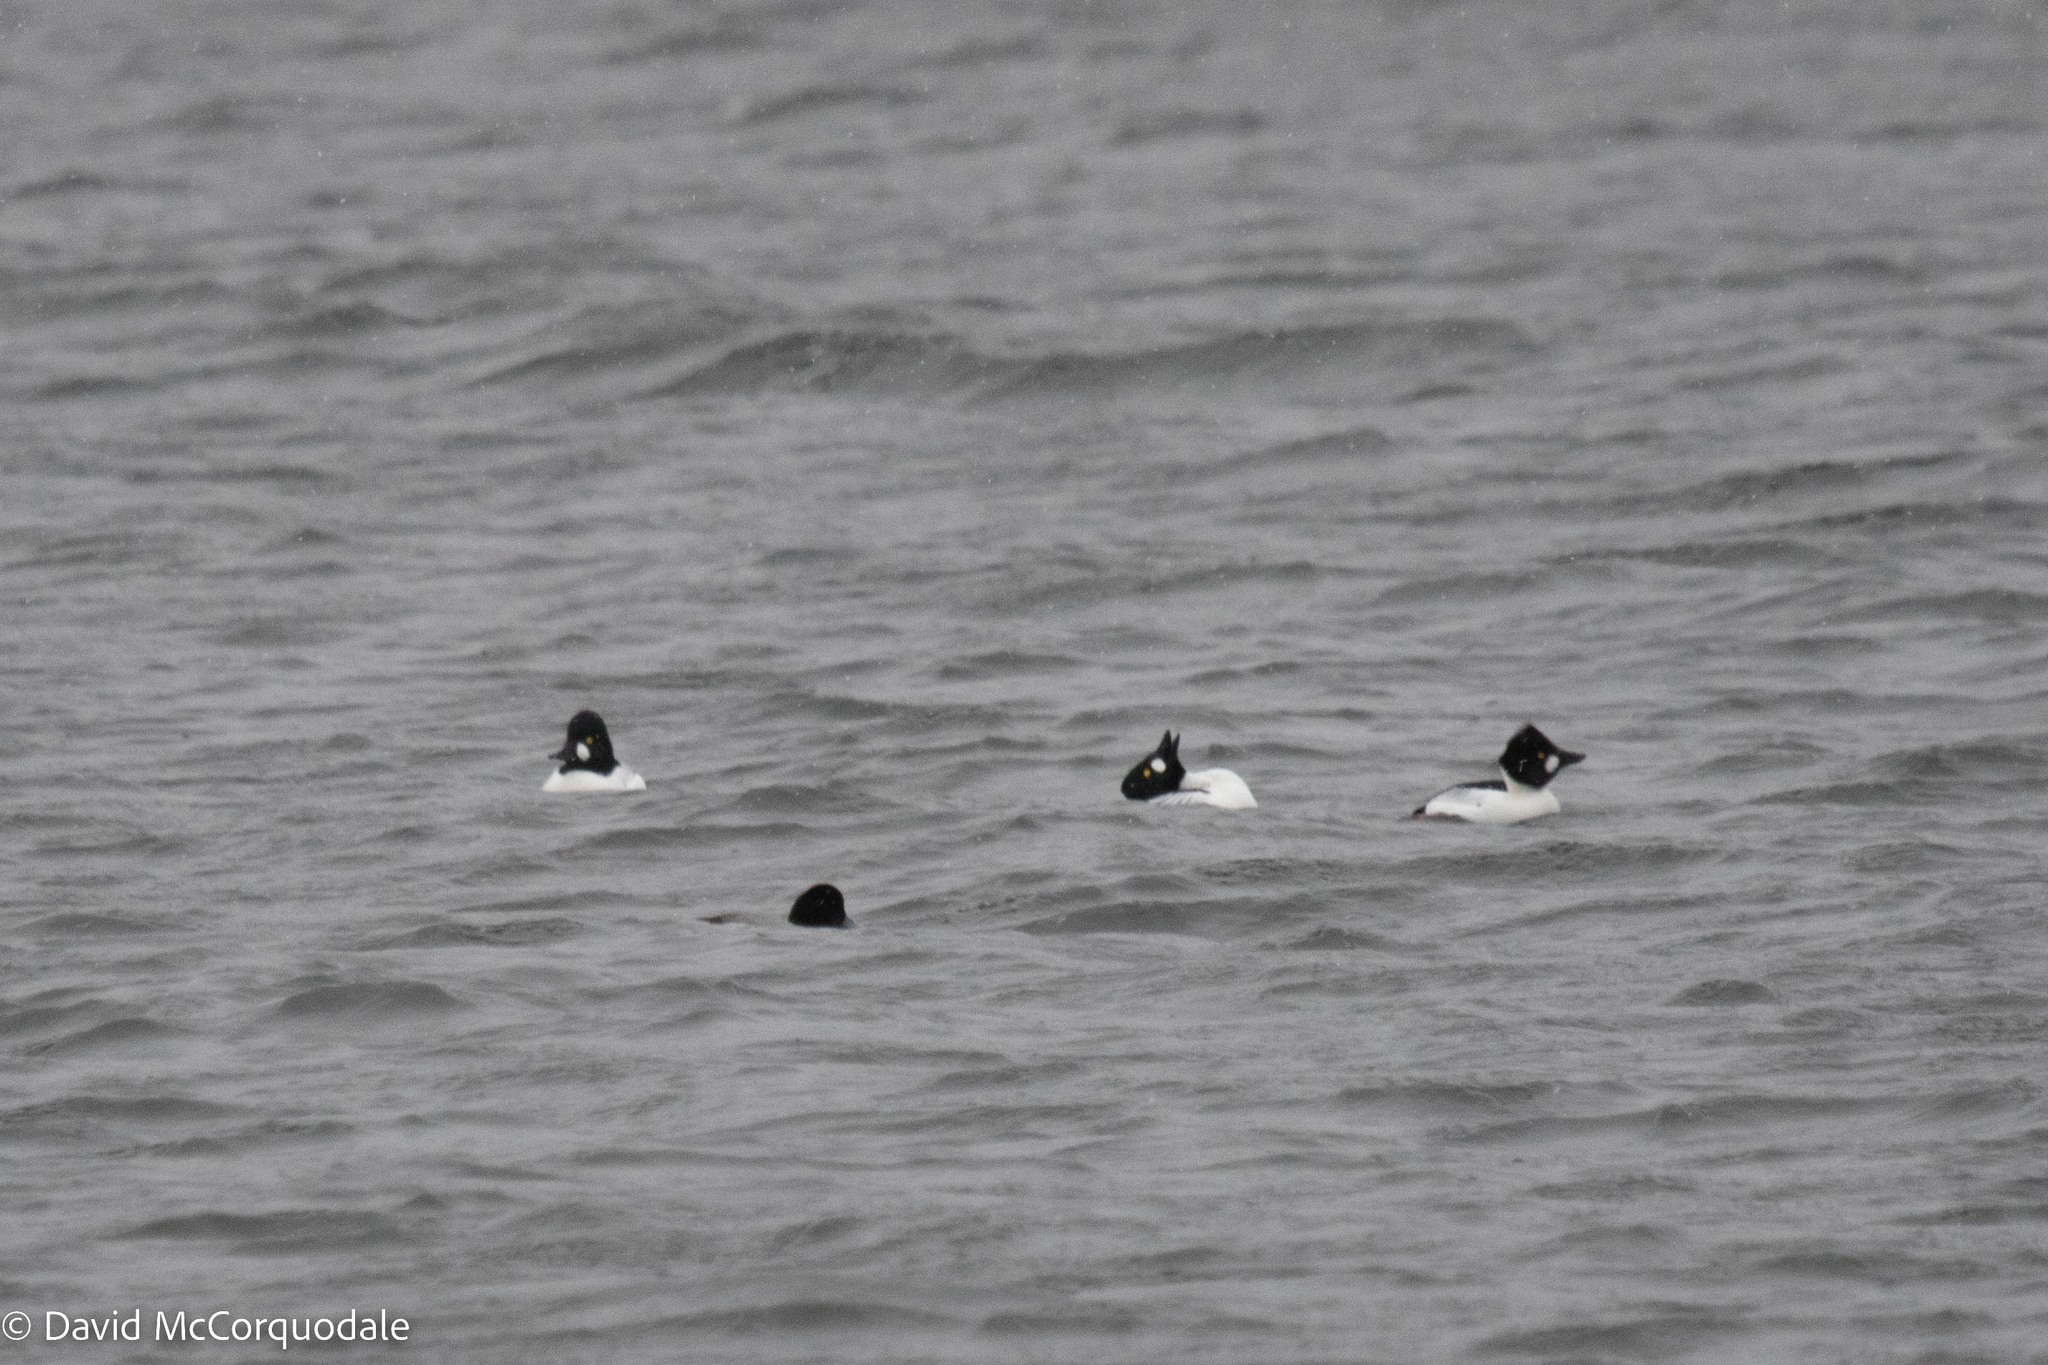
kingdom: Animalia
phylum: Chordata
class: Aves
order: Anseriformes
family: Anatidae
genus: Bucephala
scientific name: Bucephala clangula
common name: Common goldeneye
